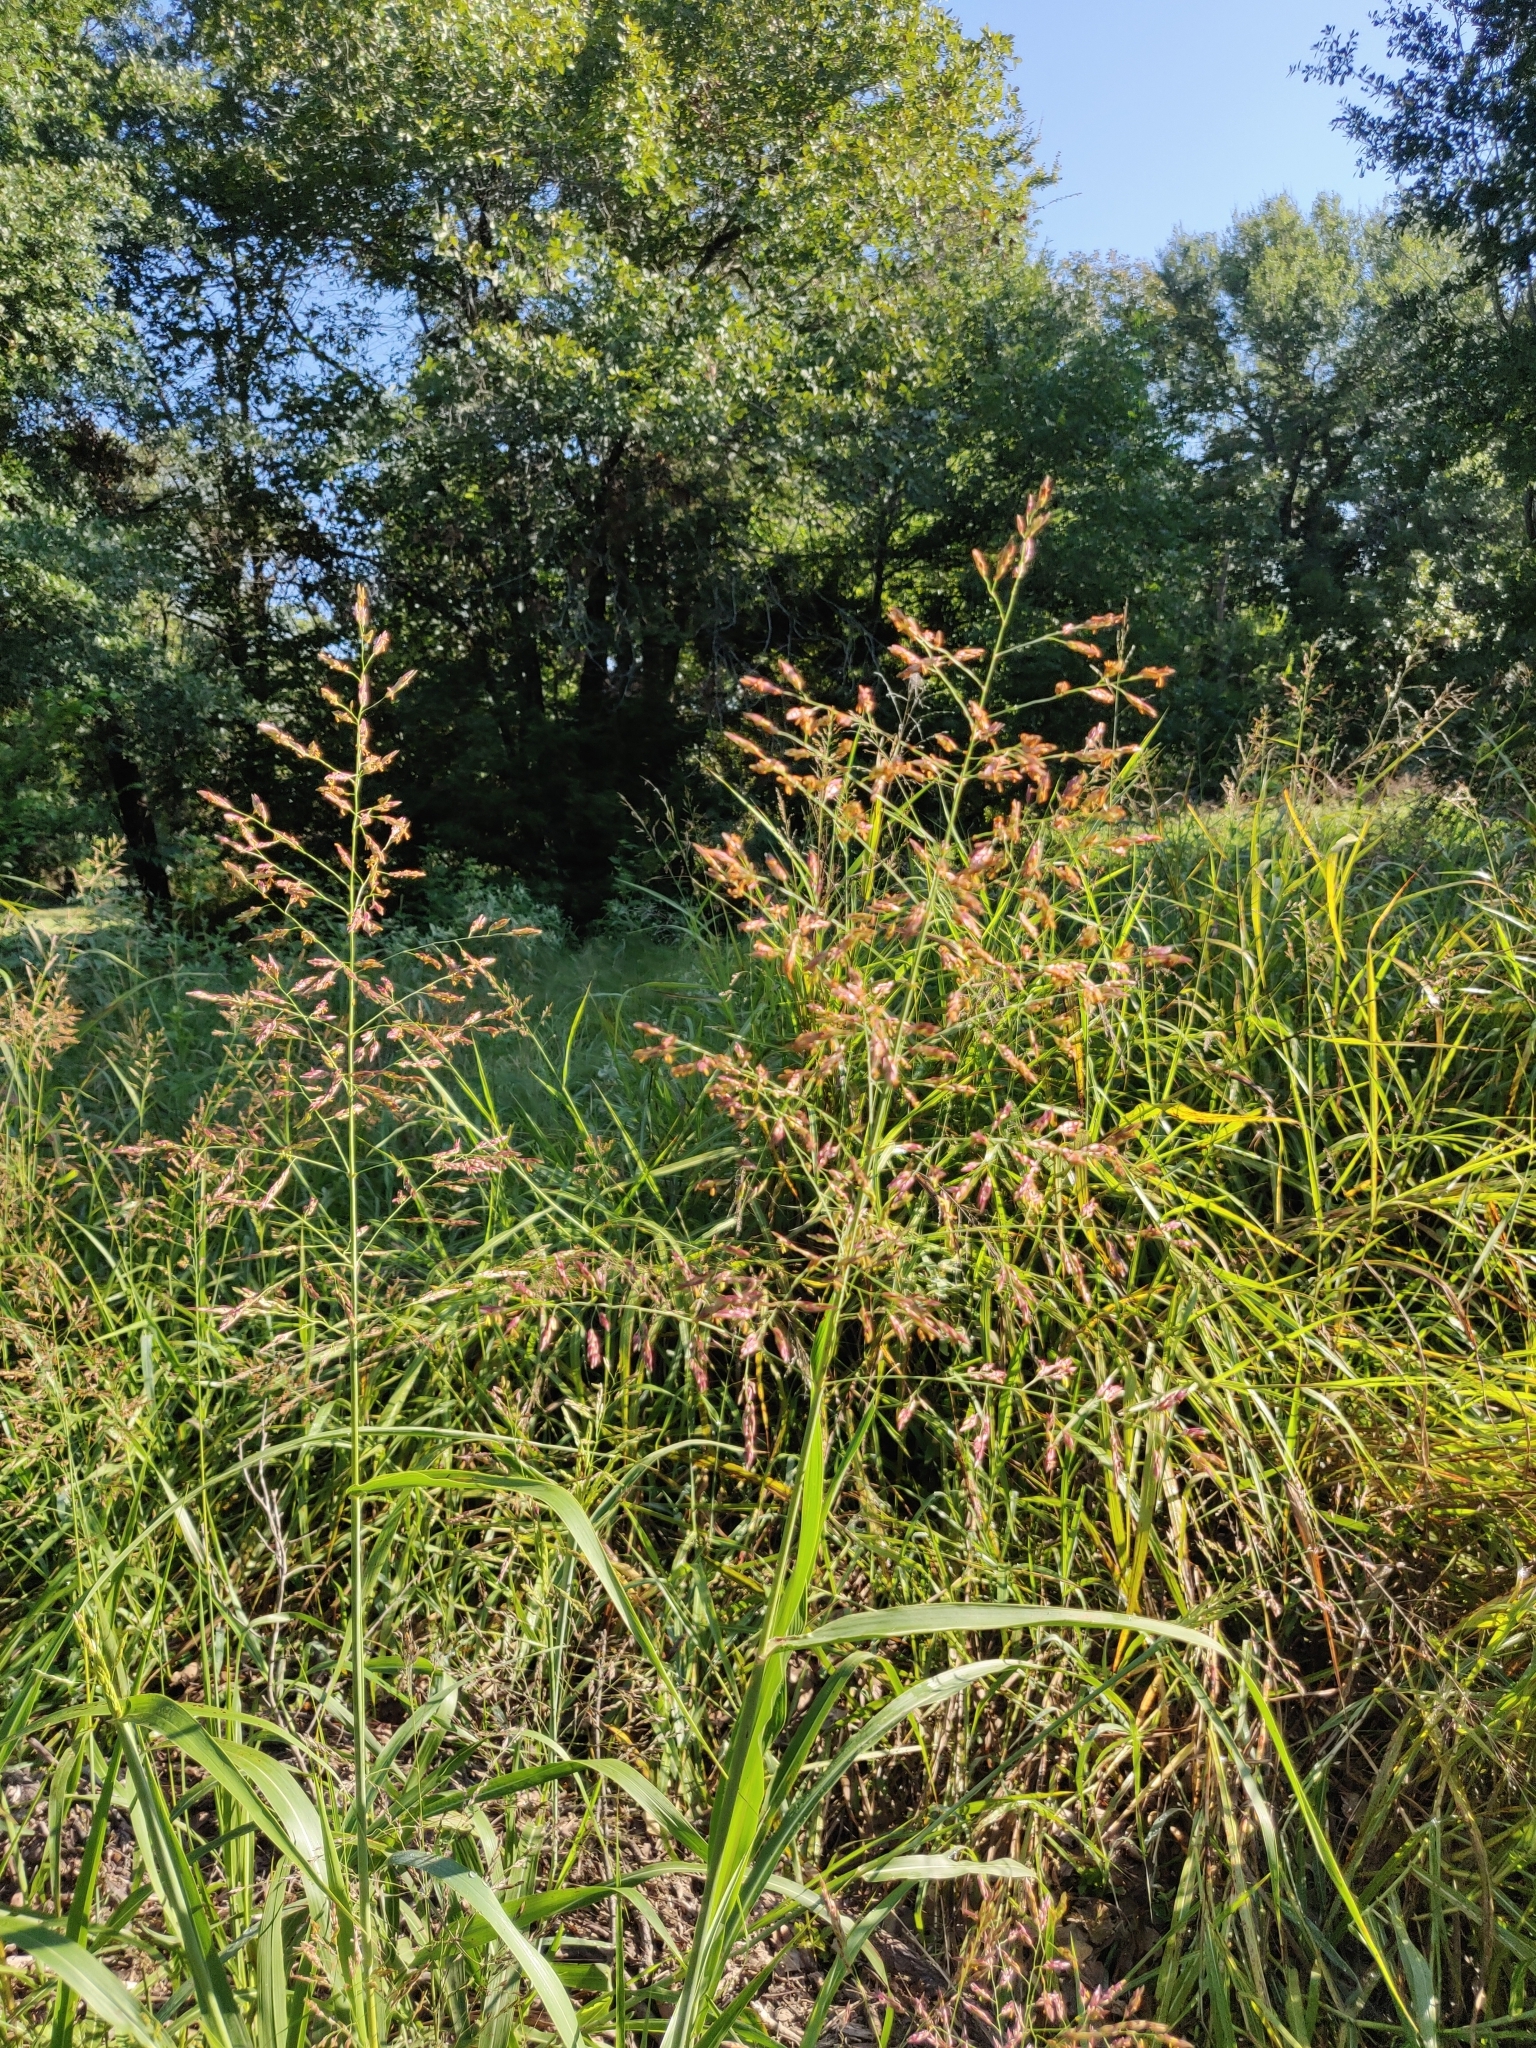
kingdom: Plantae
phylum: Tracheophyta
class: Liliopsida
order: Poales
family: Poaceae
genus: Sorghum
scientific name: Sorghum halepense
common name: Johnson-grass
